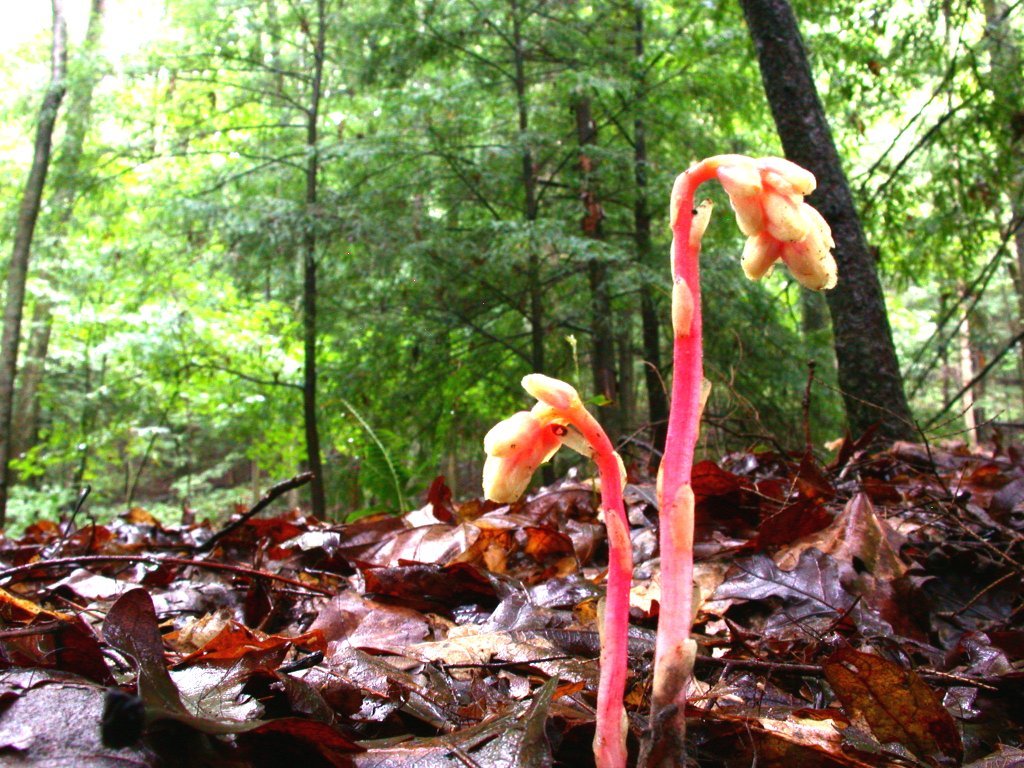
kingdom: Plantae
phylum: Tracheophyta
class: Magnoliopsida
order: Ericales
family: Ericaceae
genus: Hypopitys
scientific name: Hypopitys monotropa
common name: Yellow bird's-nest
